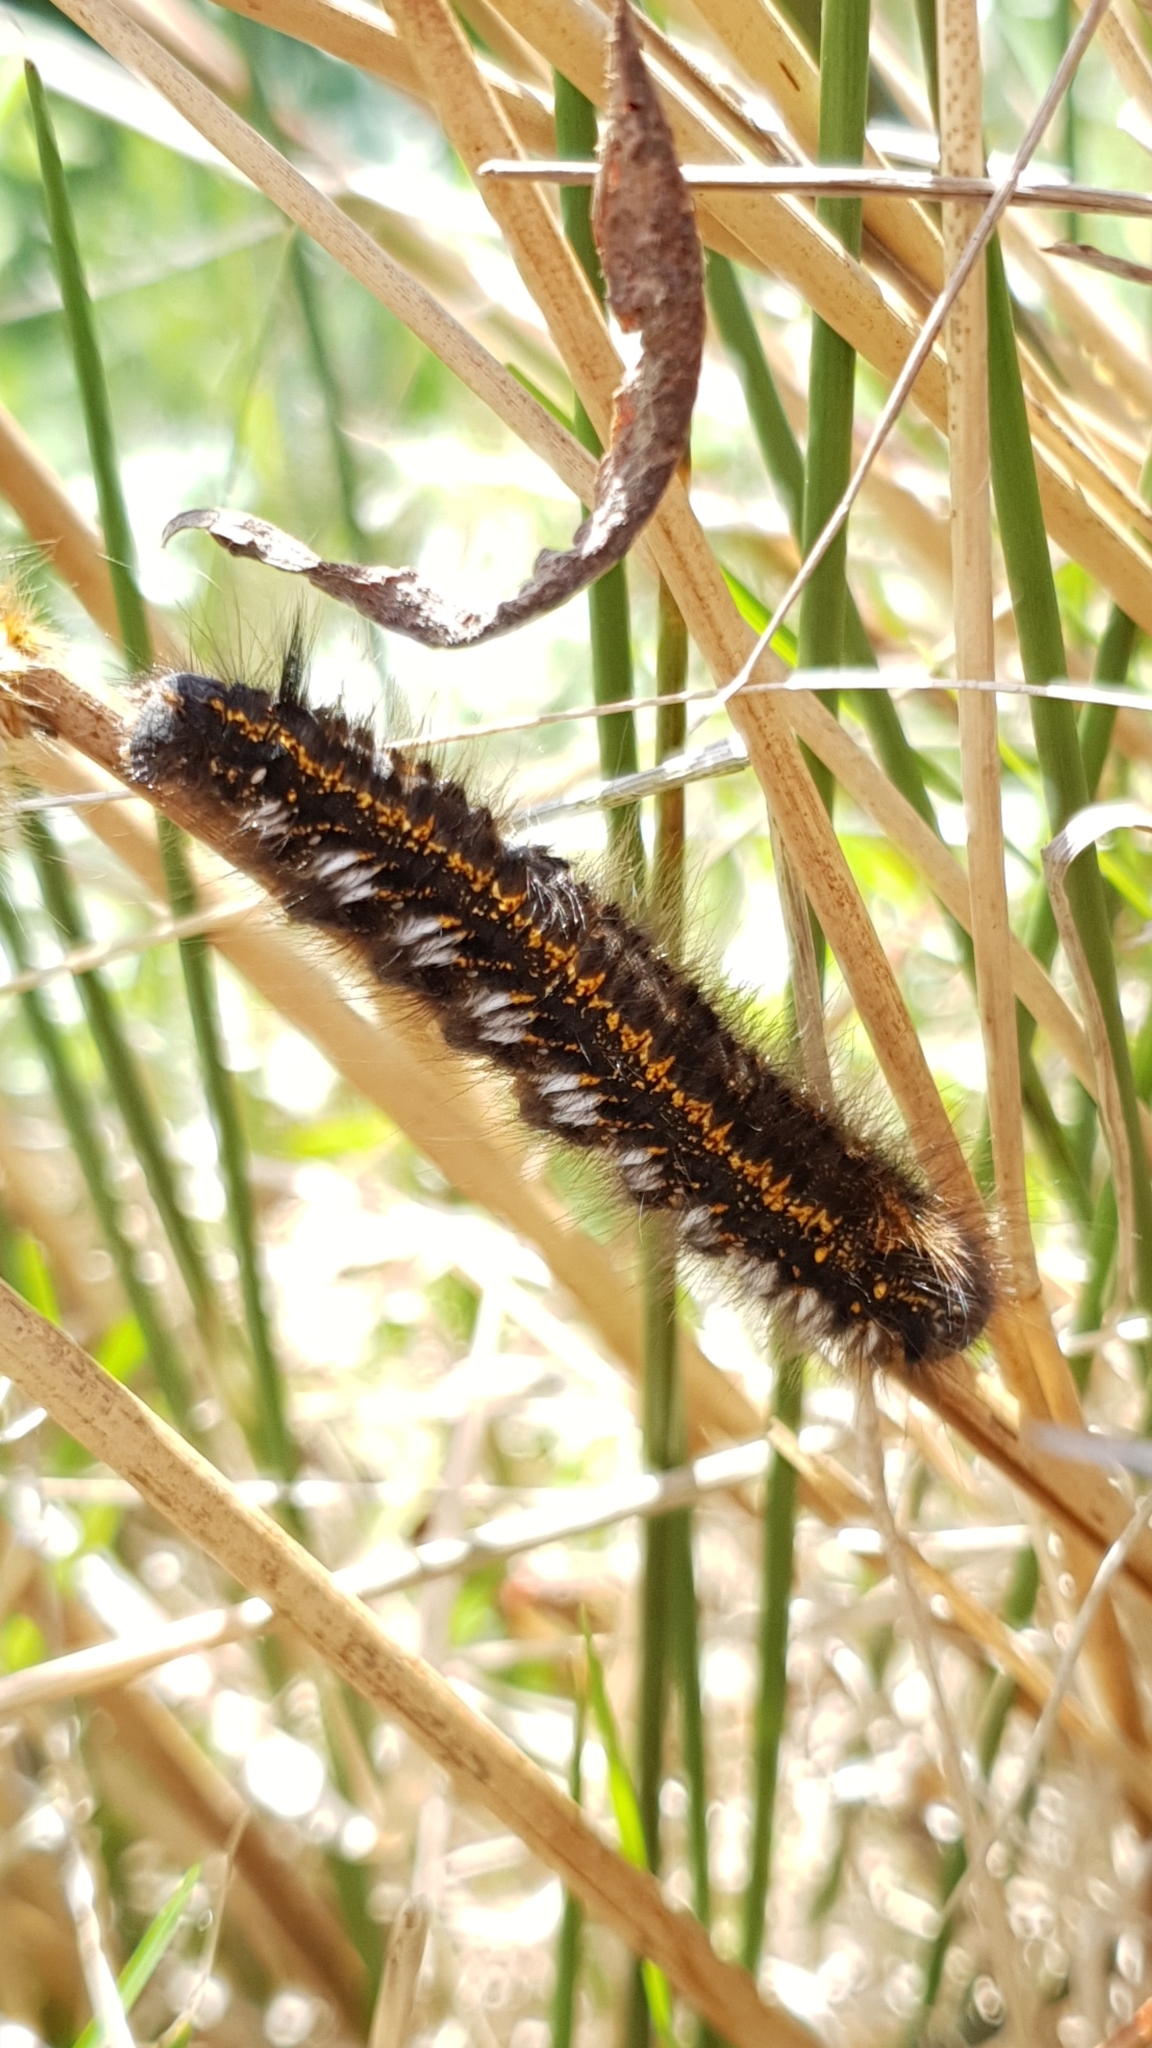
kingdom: Animalia
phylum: Arthropoda
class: Insecta
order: Lepidoptera
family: Lasiocampidae
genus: Euthrix
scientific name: Euthrix potatoria
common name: Drinker
